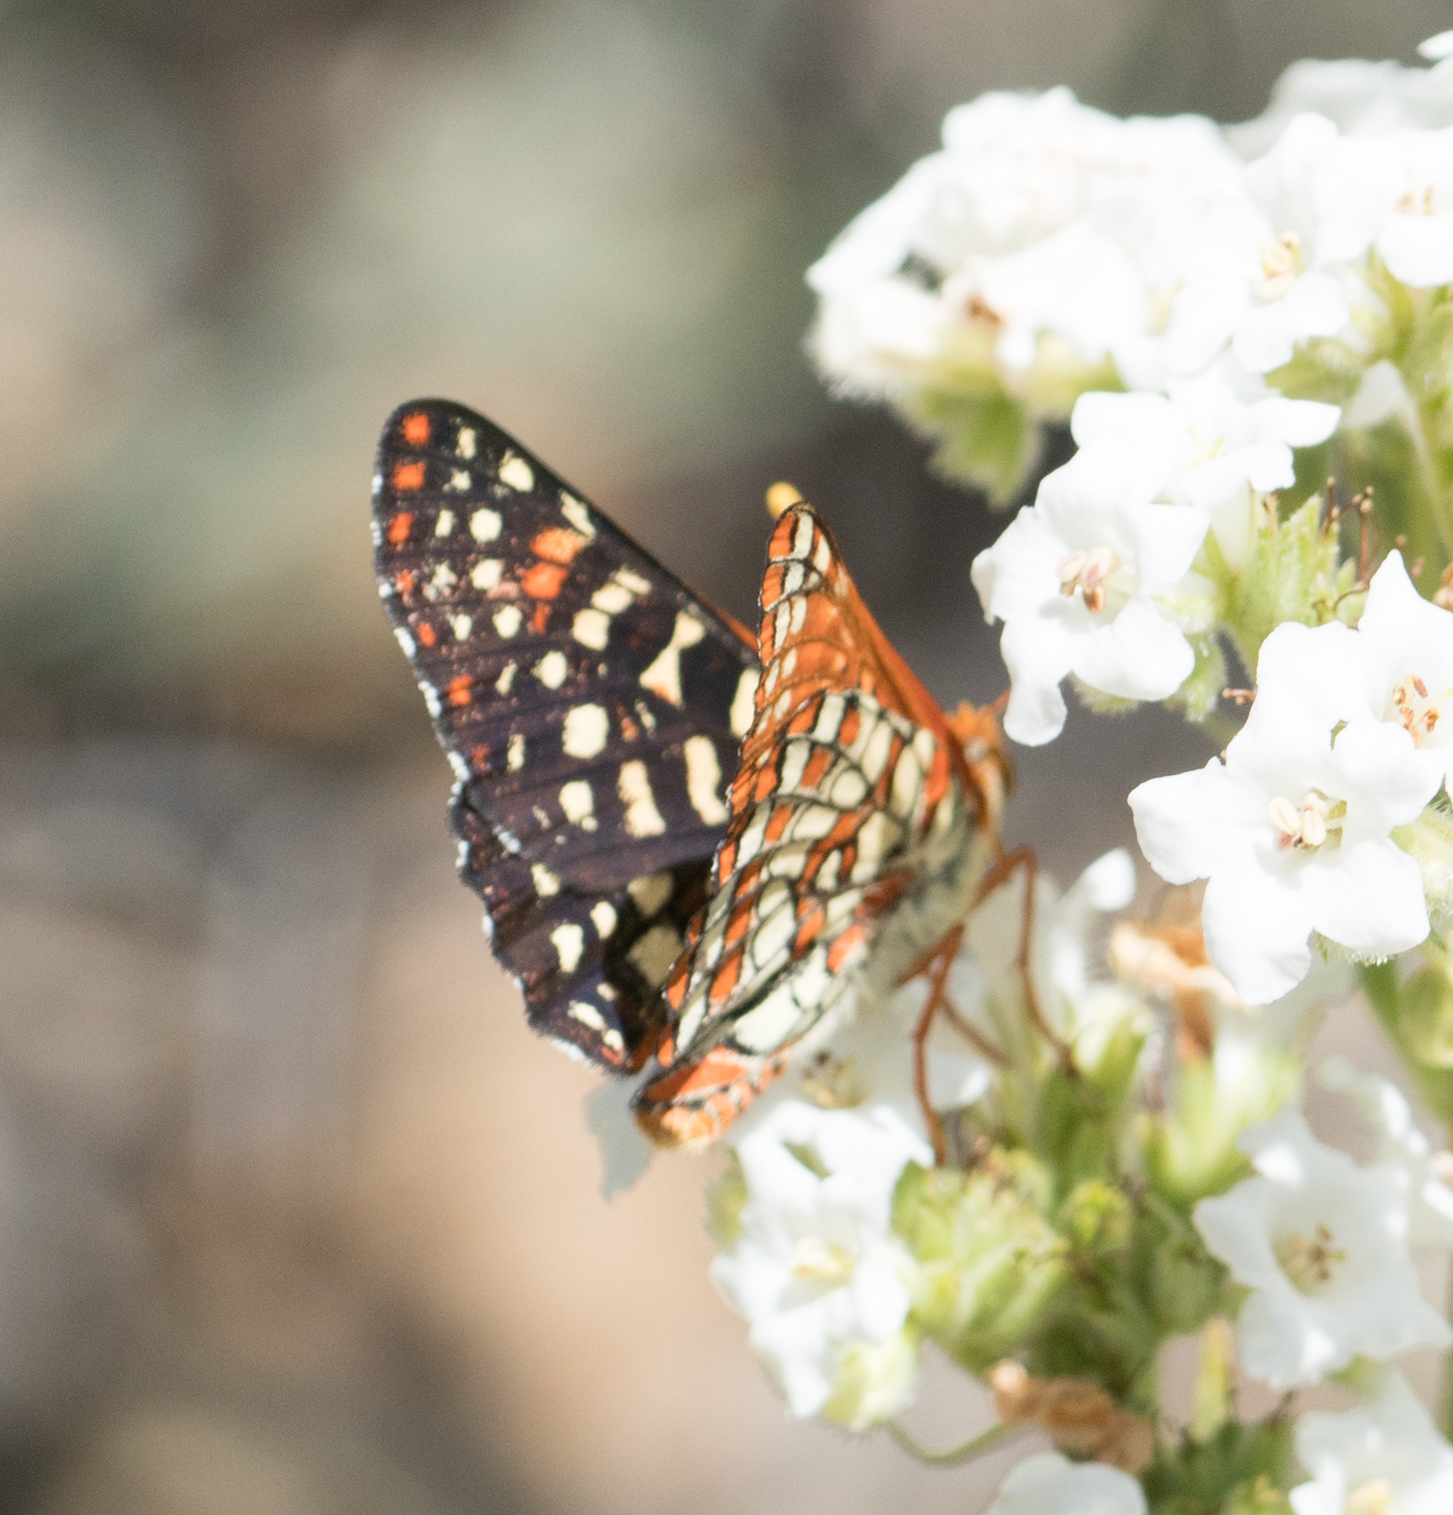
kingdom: Animalia
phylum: Arthropoda
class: Insecta
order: Lepidoptera
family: Nymphalidae
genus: Occidryas
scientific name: Occidryas chalcedona
